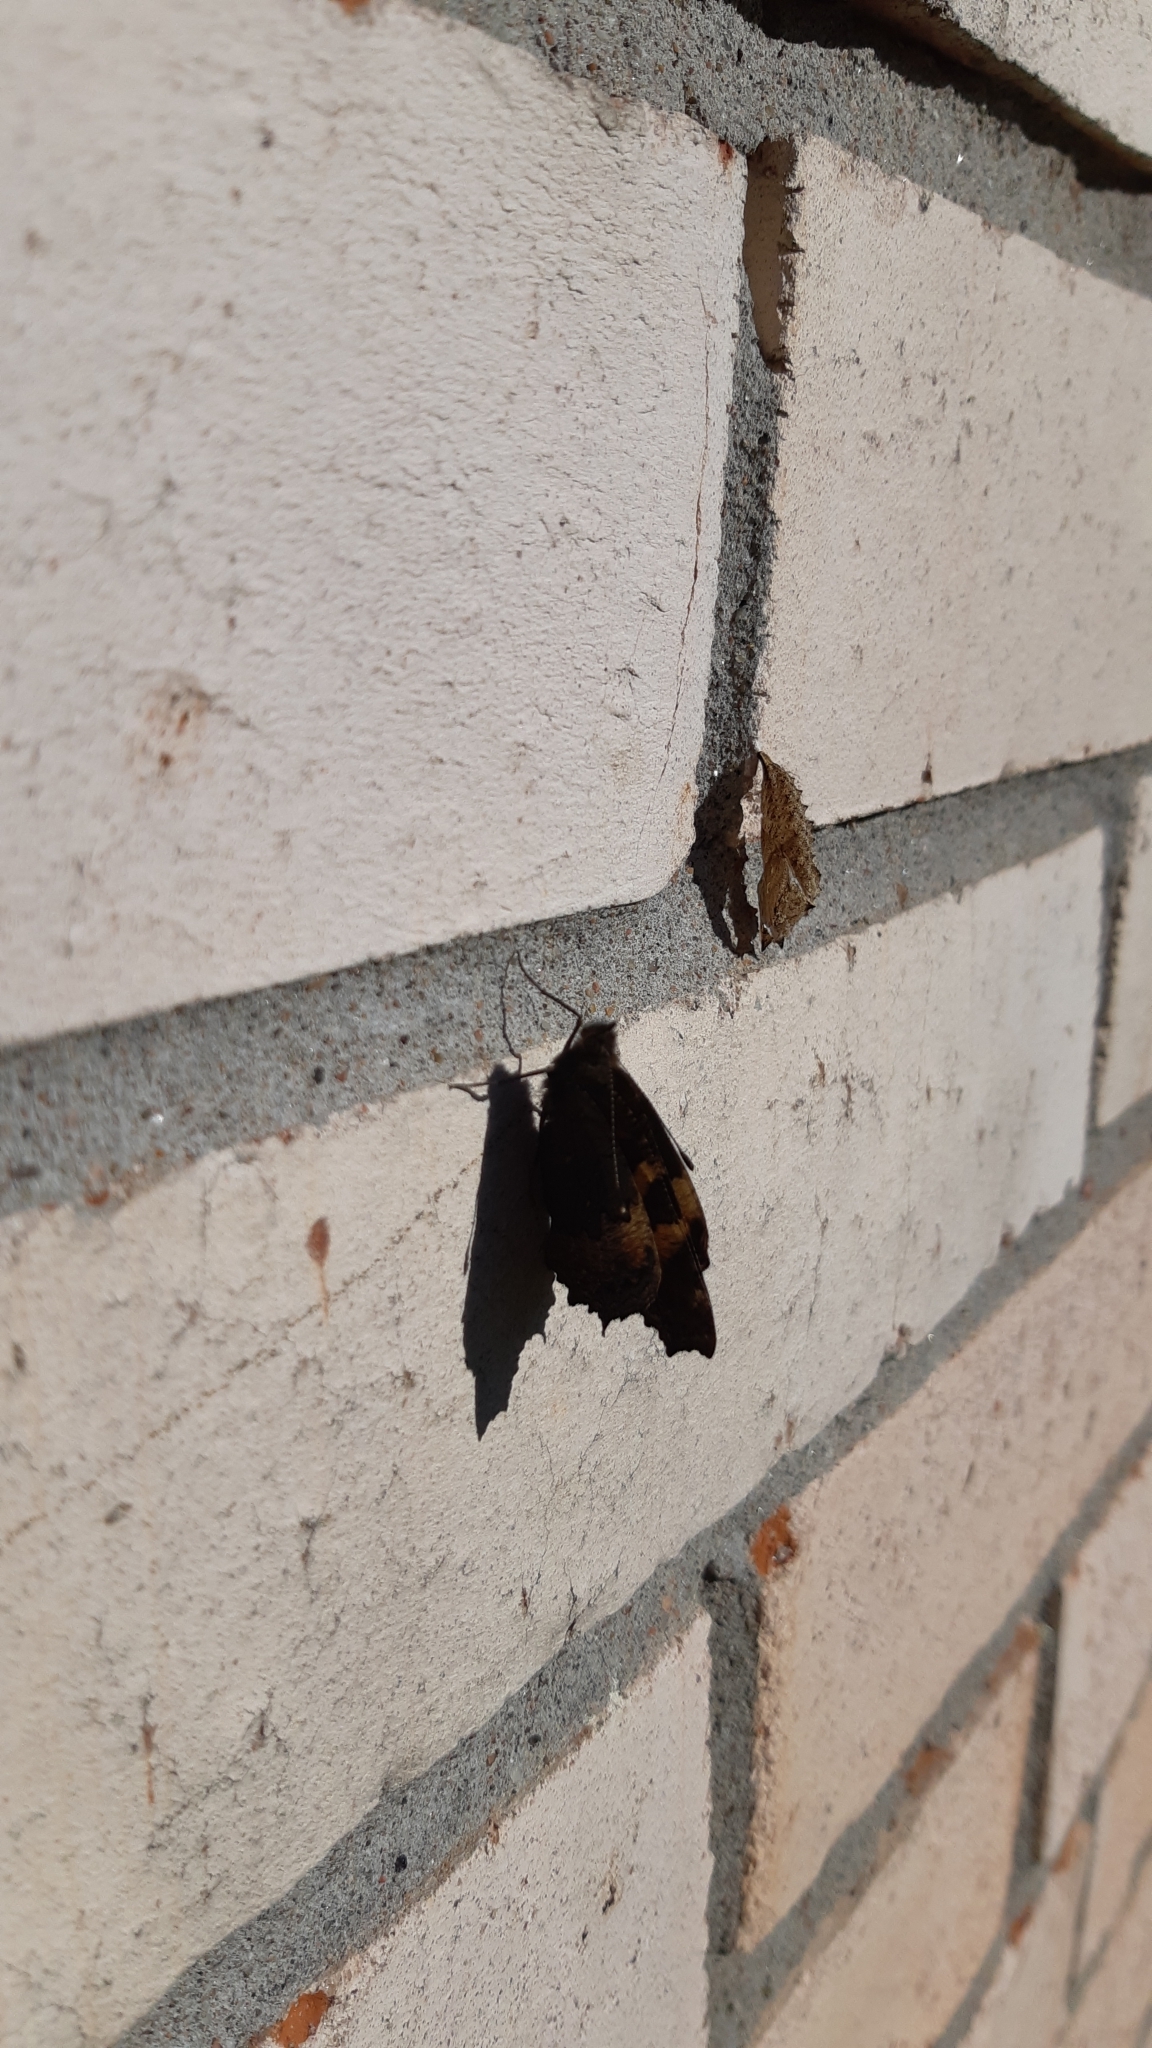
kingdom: Animalia
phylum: Arthropoda
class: Insecta
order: Lepidoptera
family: Nymphalidae
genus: Aglais
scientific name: Aglais urticae
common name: Small tortoiseshell
